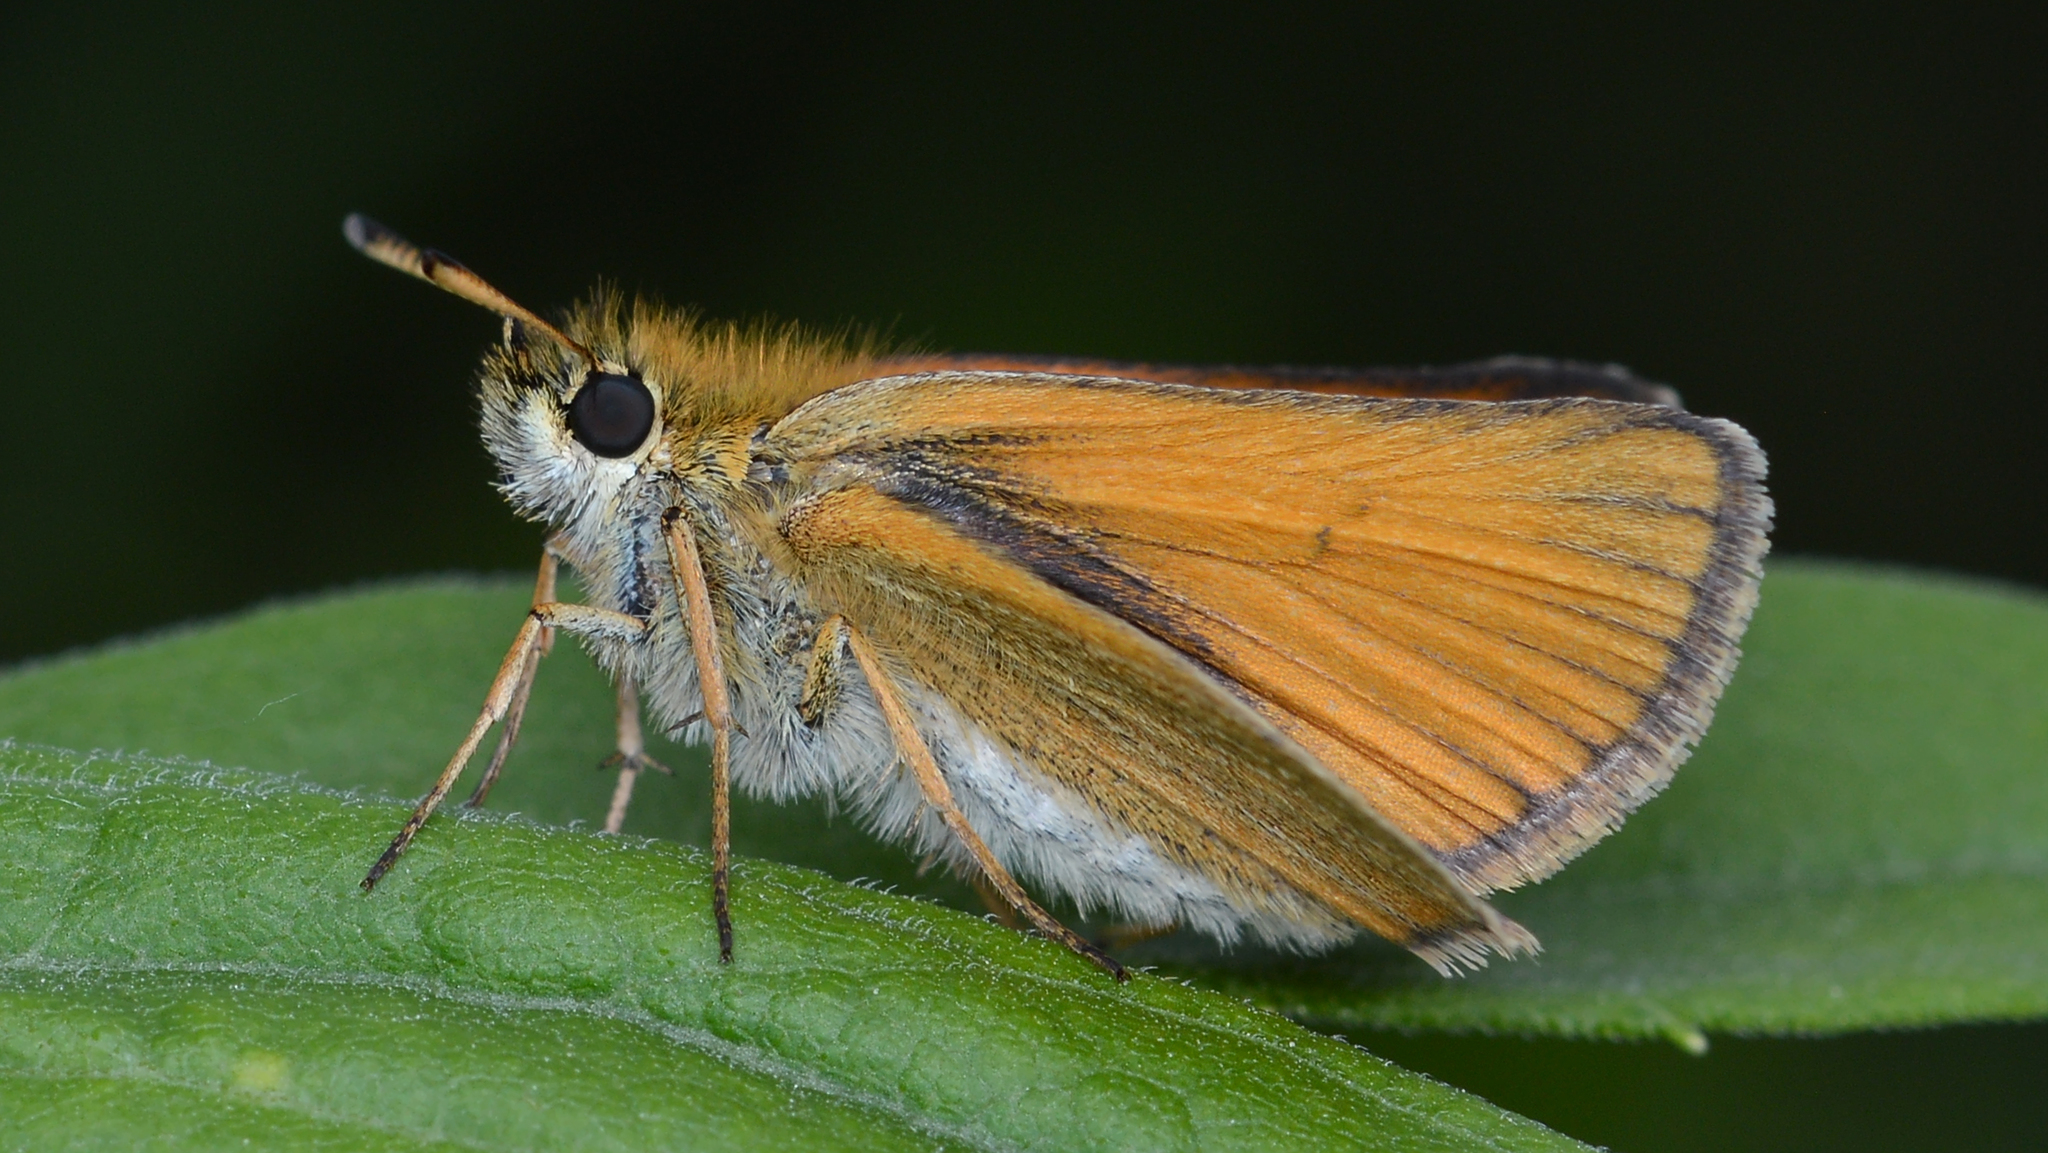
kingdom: Animalia
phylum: Arthropoda
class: Insecta
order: Lepidoptera
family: Hesperiidae
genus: Thymelicus
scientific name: Thymelicus lineola
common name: Essex skipper
